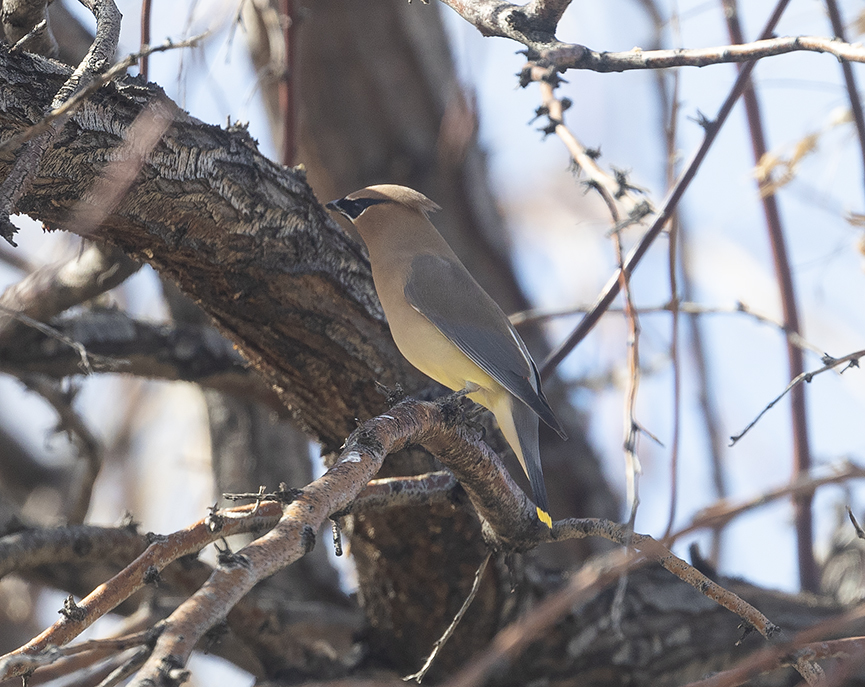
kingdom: Animalia
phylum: Chordata
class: Aves
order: Passeriformes
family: Bombycillidae
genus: Bombycilla
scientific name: Bombycilla cedrorum
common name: Cedar waxwing
